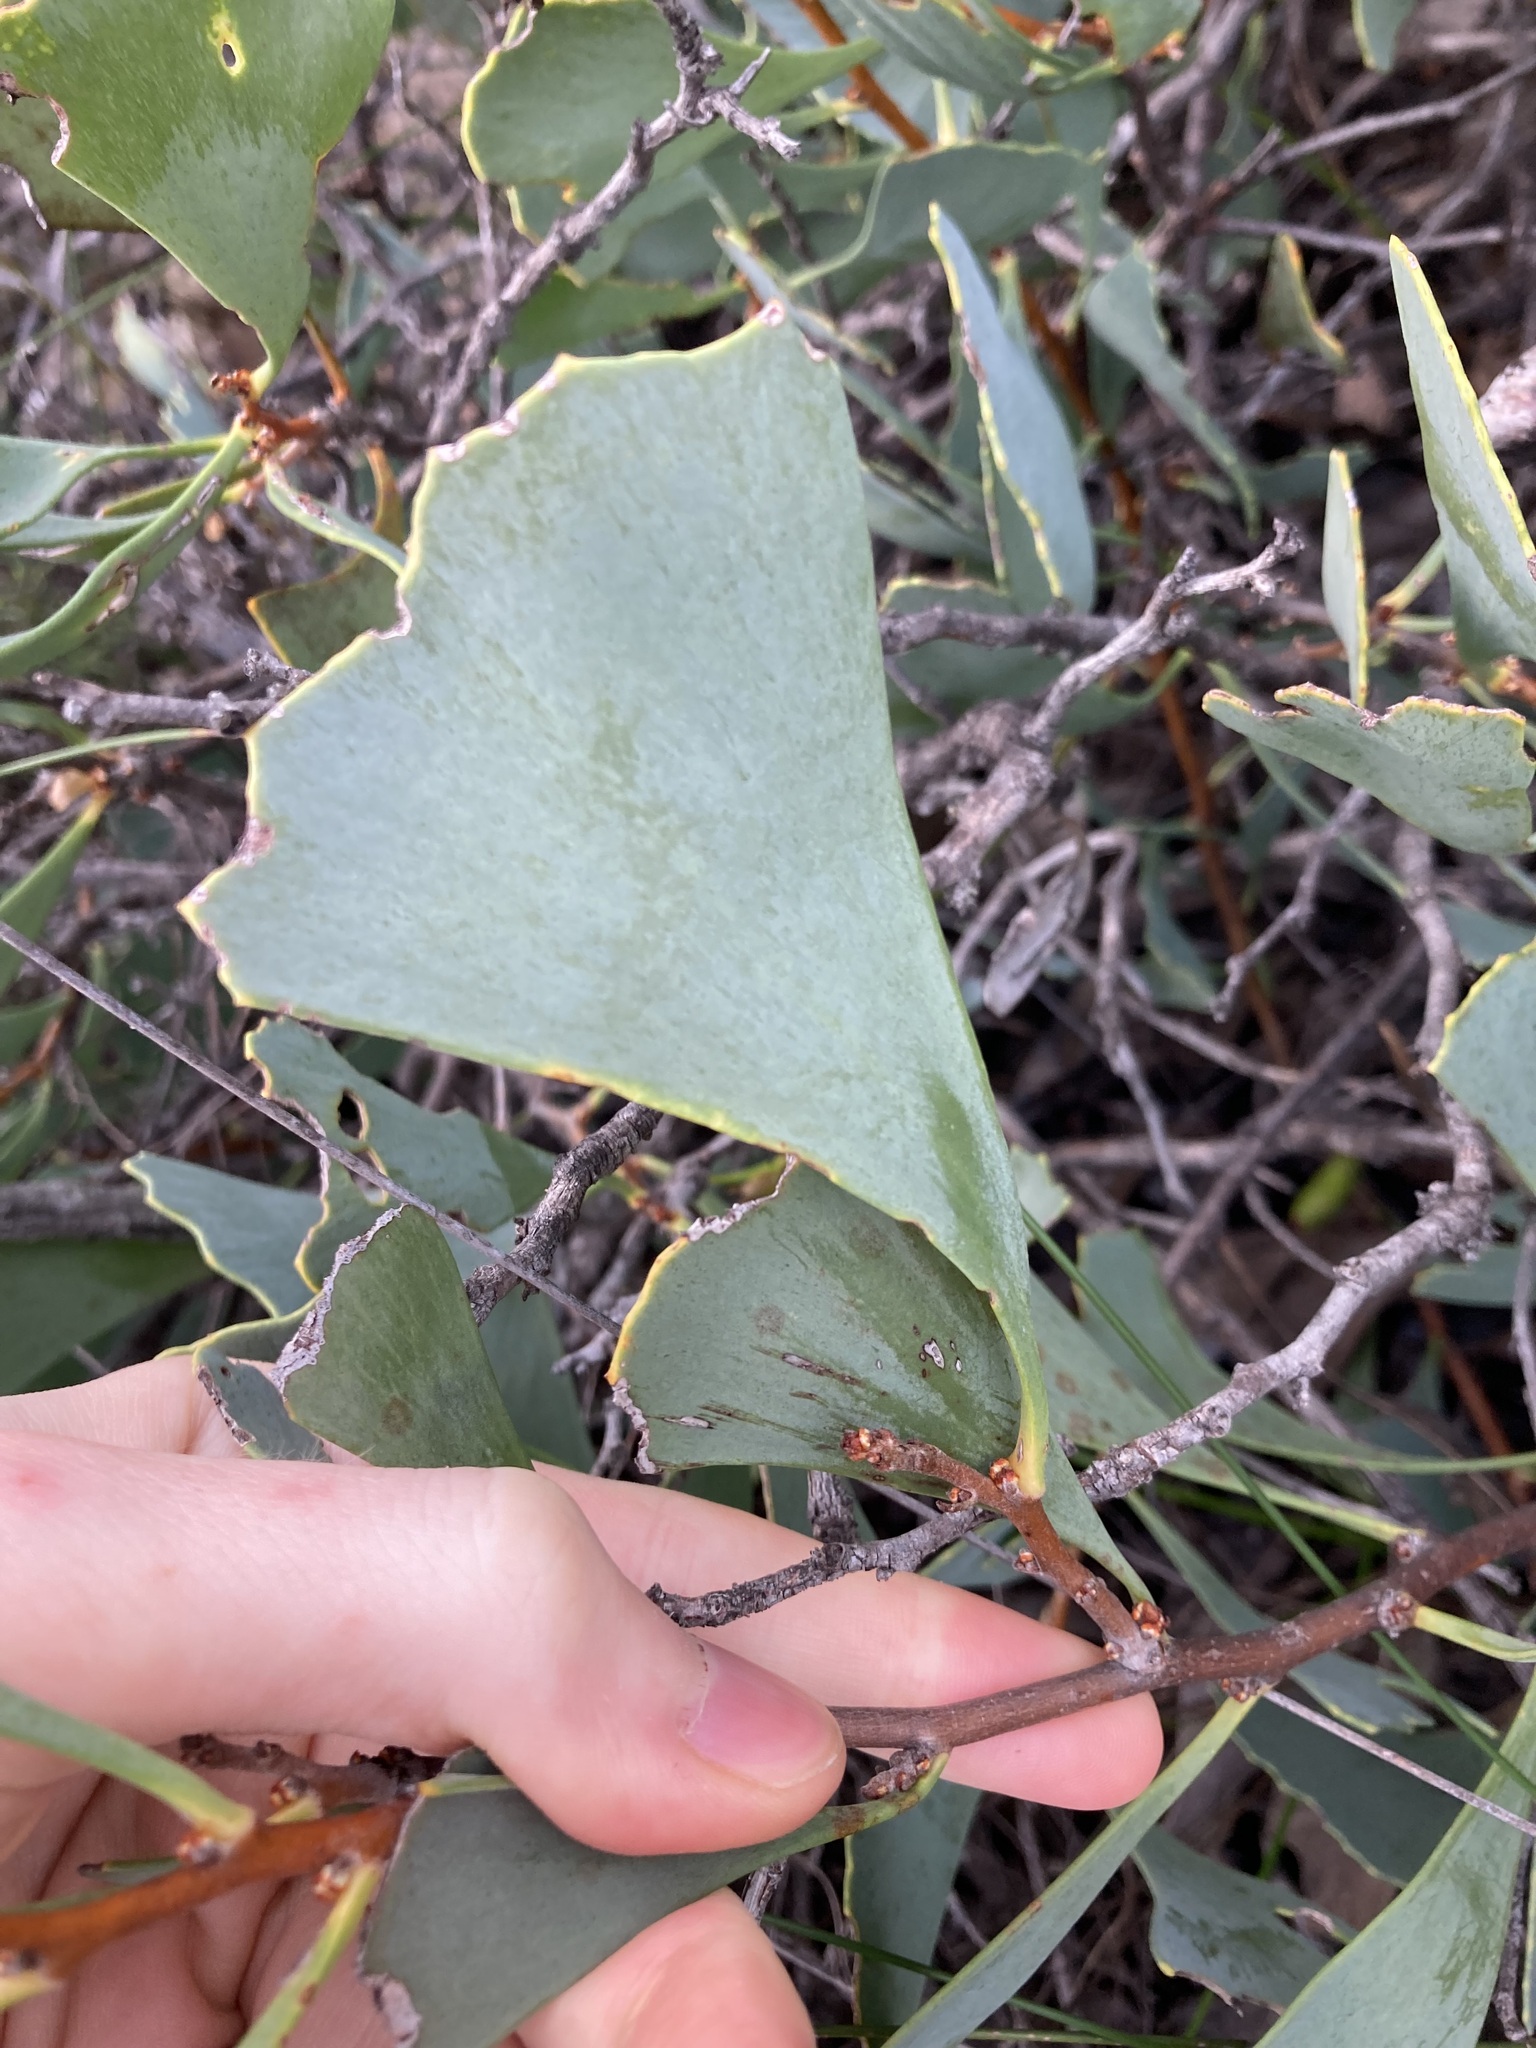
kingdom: Plantae
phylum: Tracheophyta
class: Magnoliopsida
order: Proteales
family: Proteaceae
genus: Hakea
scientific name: Hakea flabellifolia
